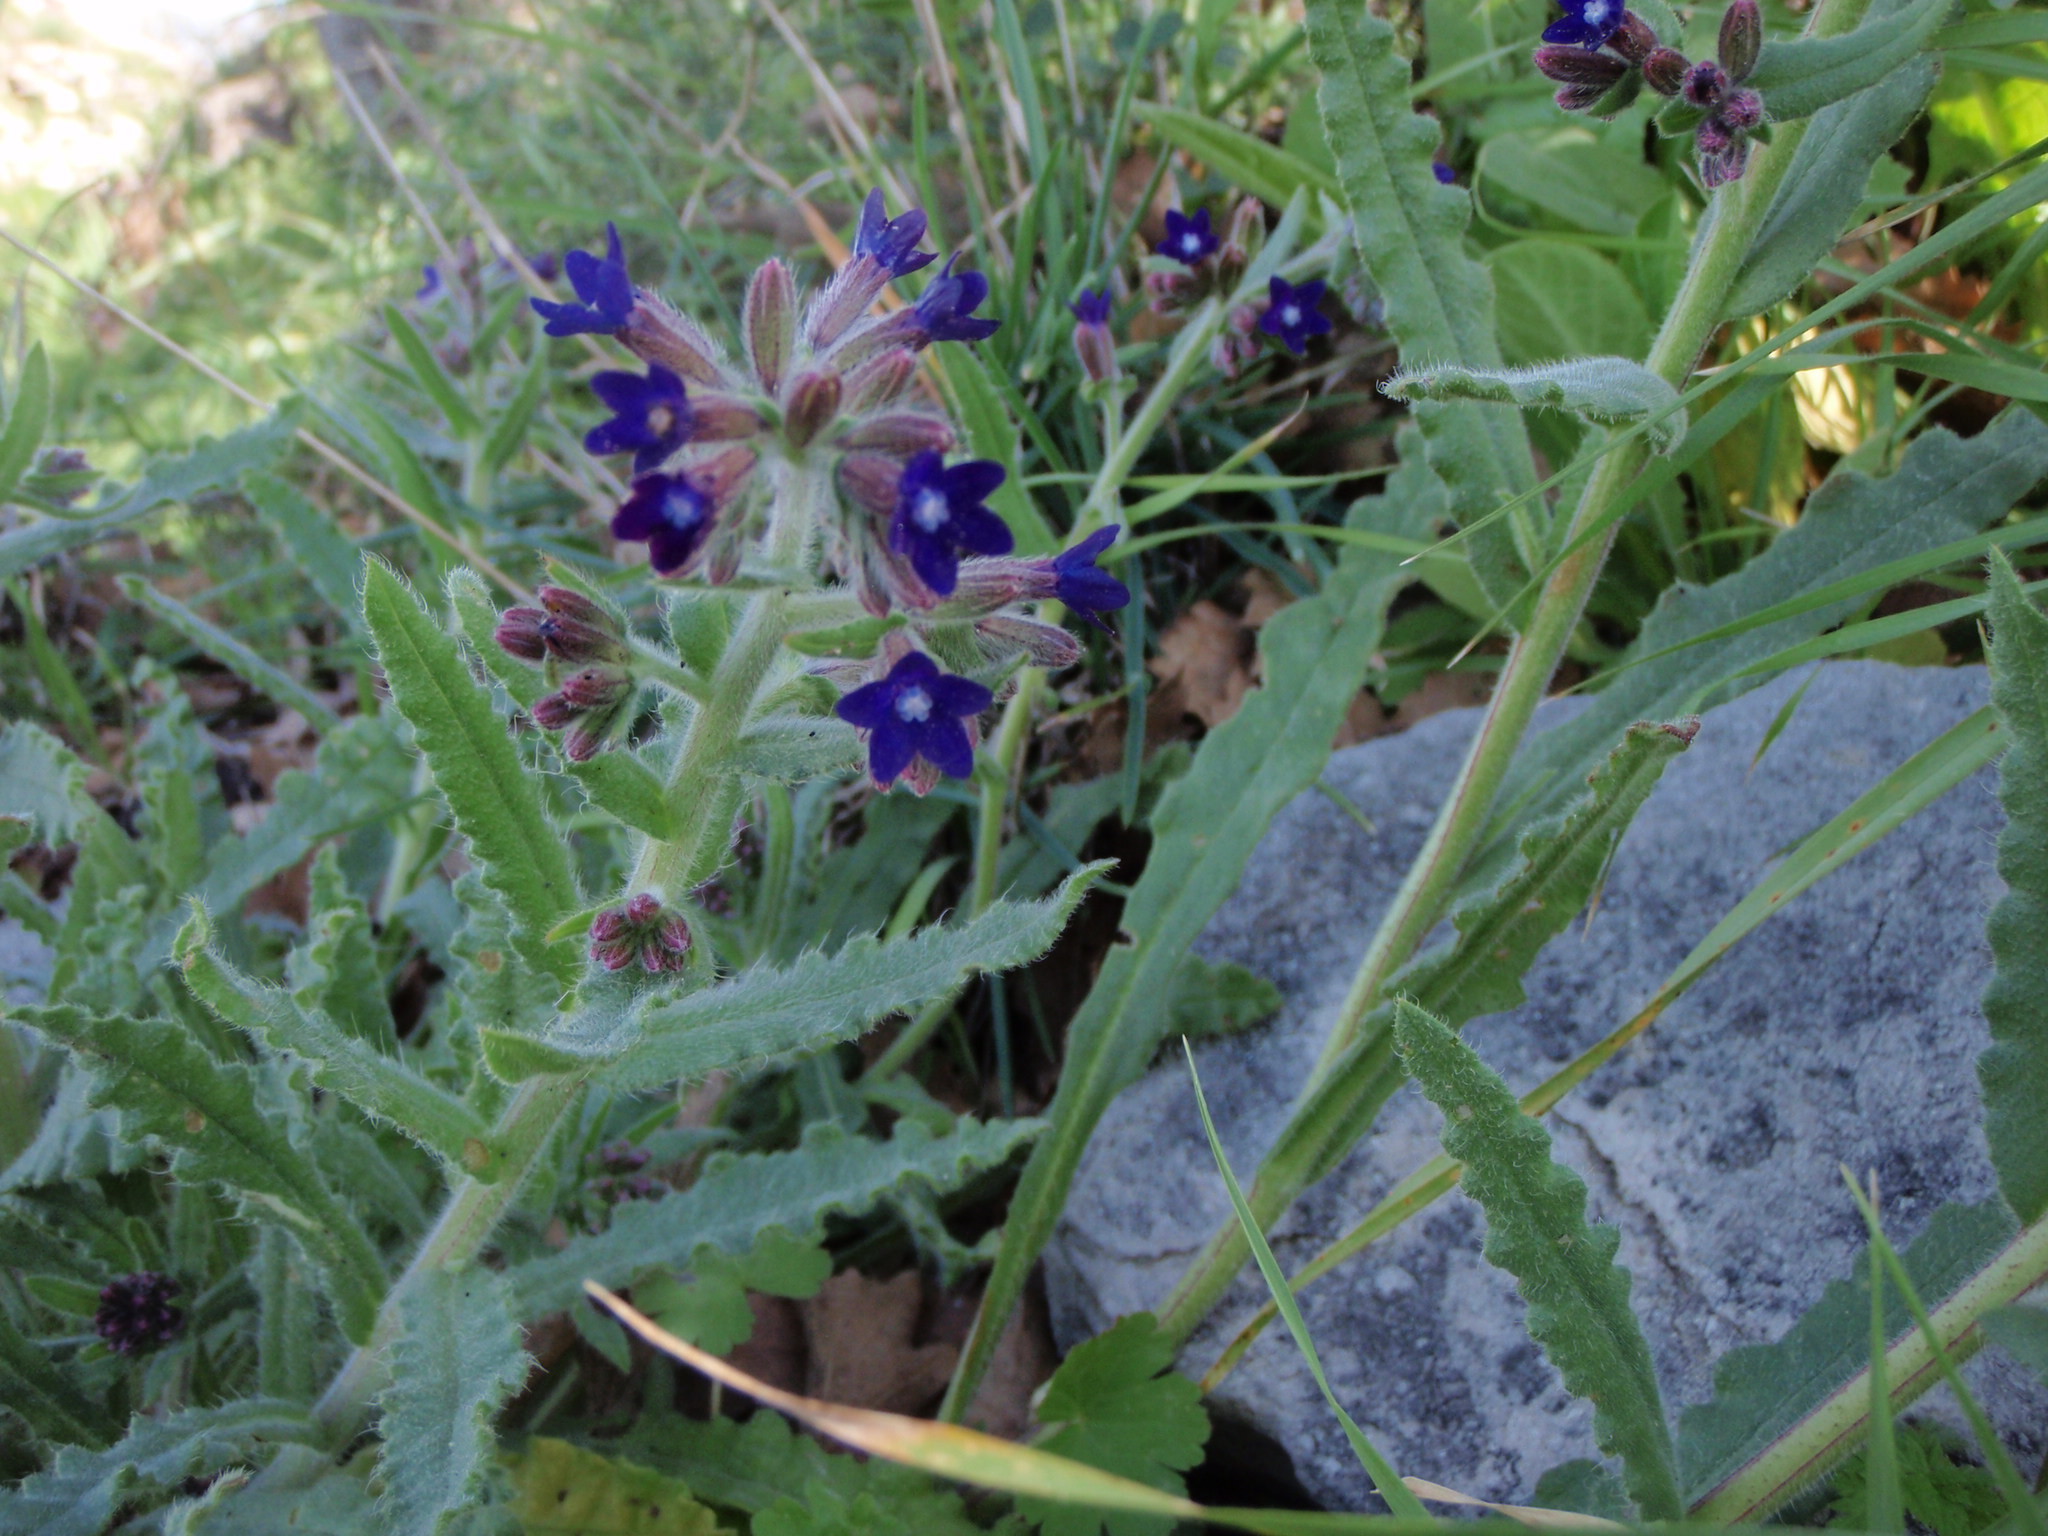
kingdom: Plantae
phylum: Tracheophyta
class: Magnoliopsida
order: Boraginales
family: Boraginaceae
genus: Anchusa
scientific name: Anchusa officinalis
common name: Alkanet
